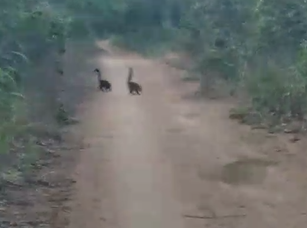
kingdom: Animalia
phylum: Chordata
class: Mammalia
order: Carnivora
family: Procyonidae
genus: Nasua
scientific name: Nasua nasua
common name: South american coati
